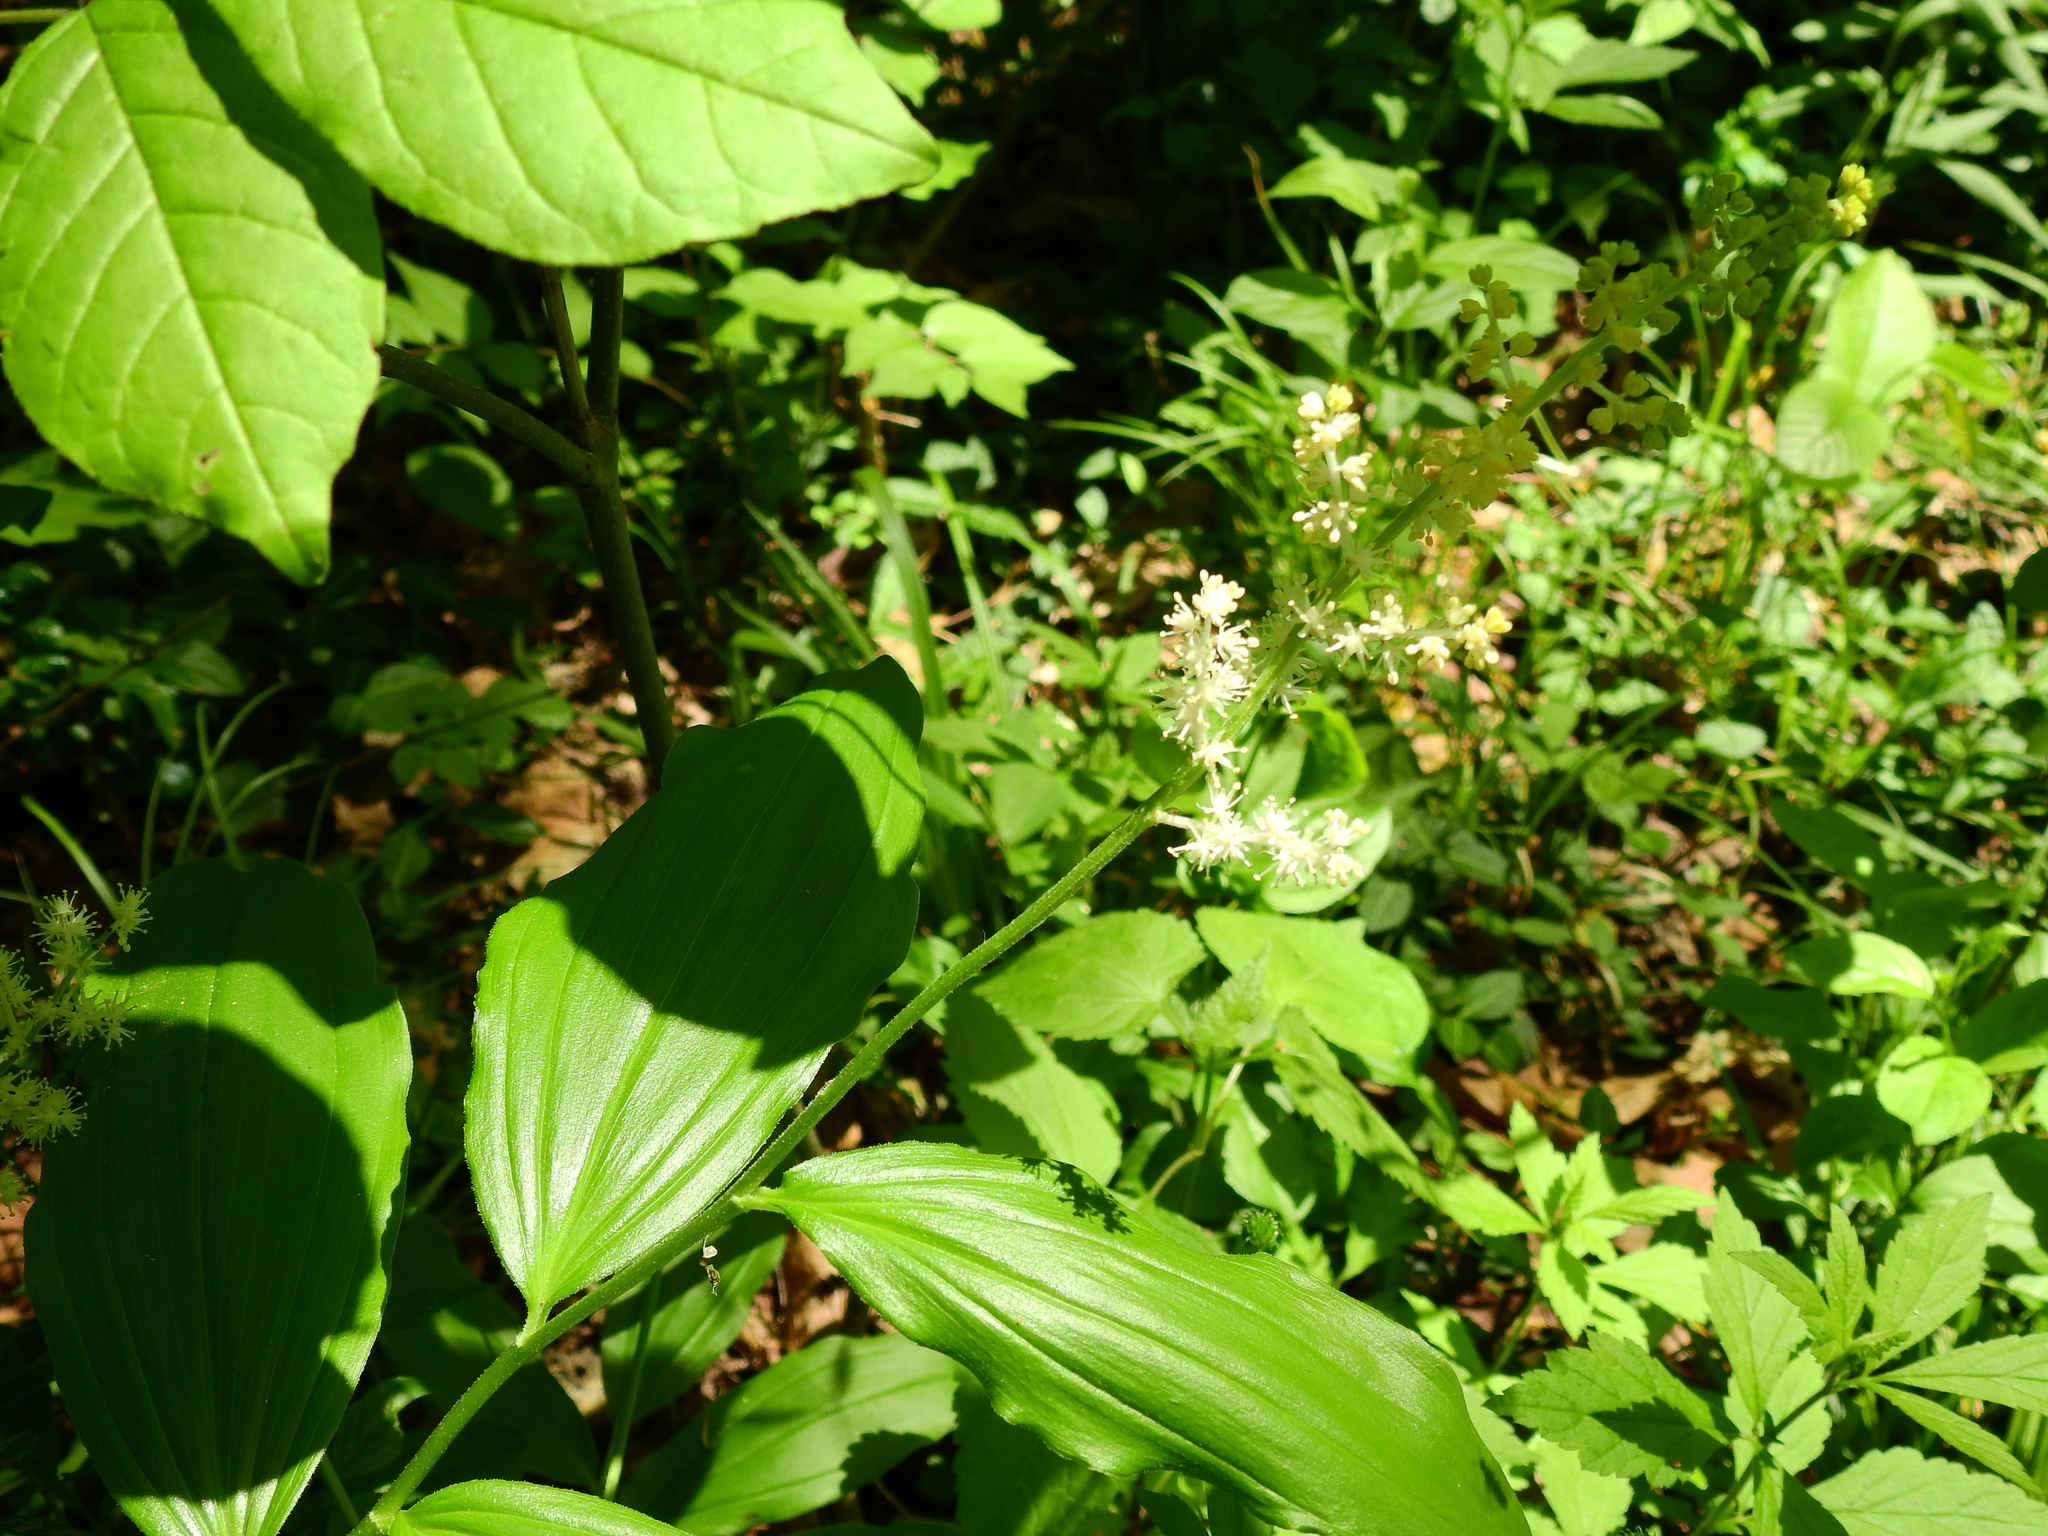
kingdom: Plantae
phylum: Tracheophyta
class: Liliopsida
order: Asparagales
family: Asparagaceae
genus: Maianthemum
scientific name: Maianthemum racemosum
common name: False spikenard
